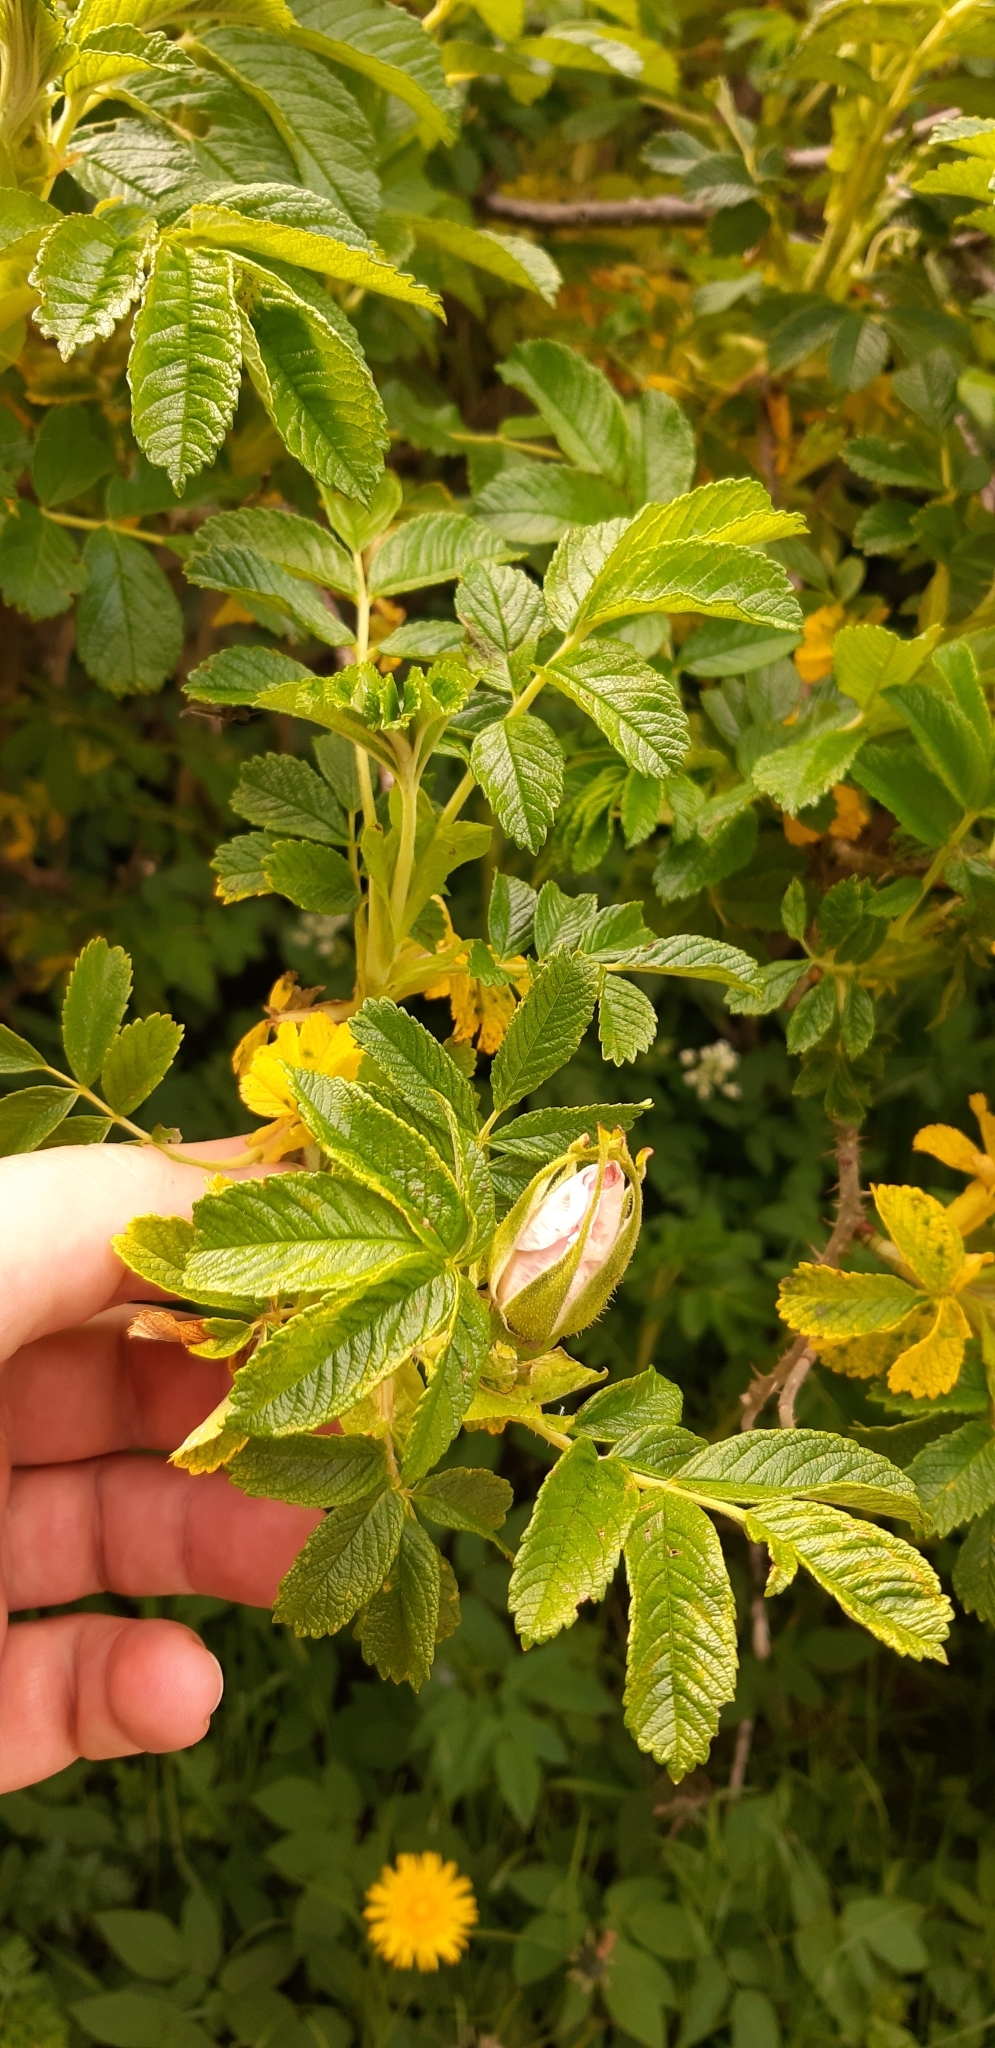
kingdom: Plantae
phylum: Tracheophyta
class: Magnoliopsida
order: Rosales
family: Rosaceae
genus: Rosa
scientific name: Rosa rugosa
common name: Japanese rose
